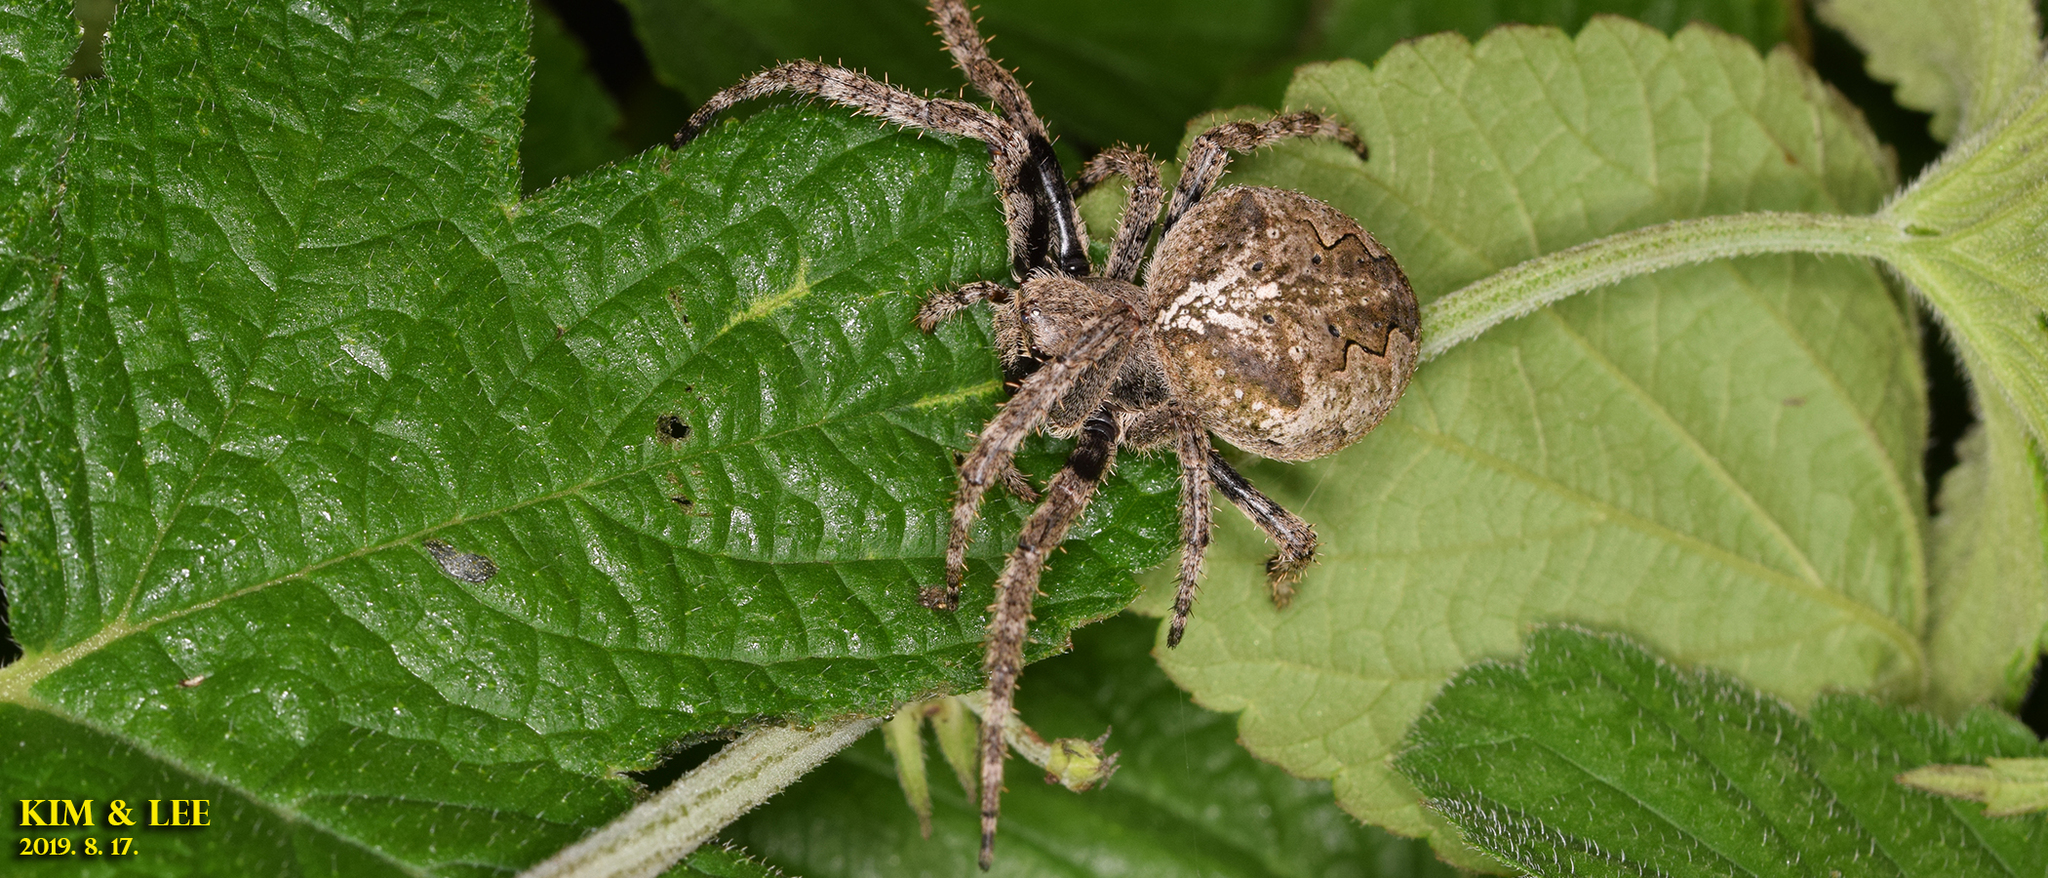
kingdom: Animalia
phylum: Arthropoda
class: Arachnida
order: Araneae
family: Araneidae
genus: Araneus
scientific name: Araneus ventricosus
